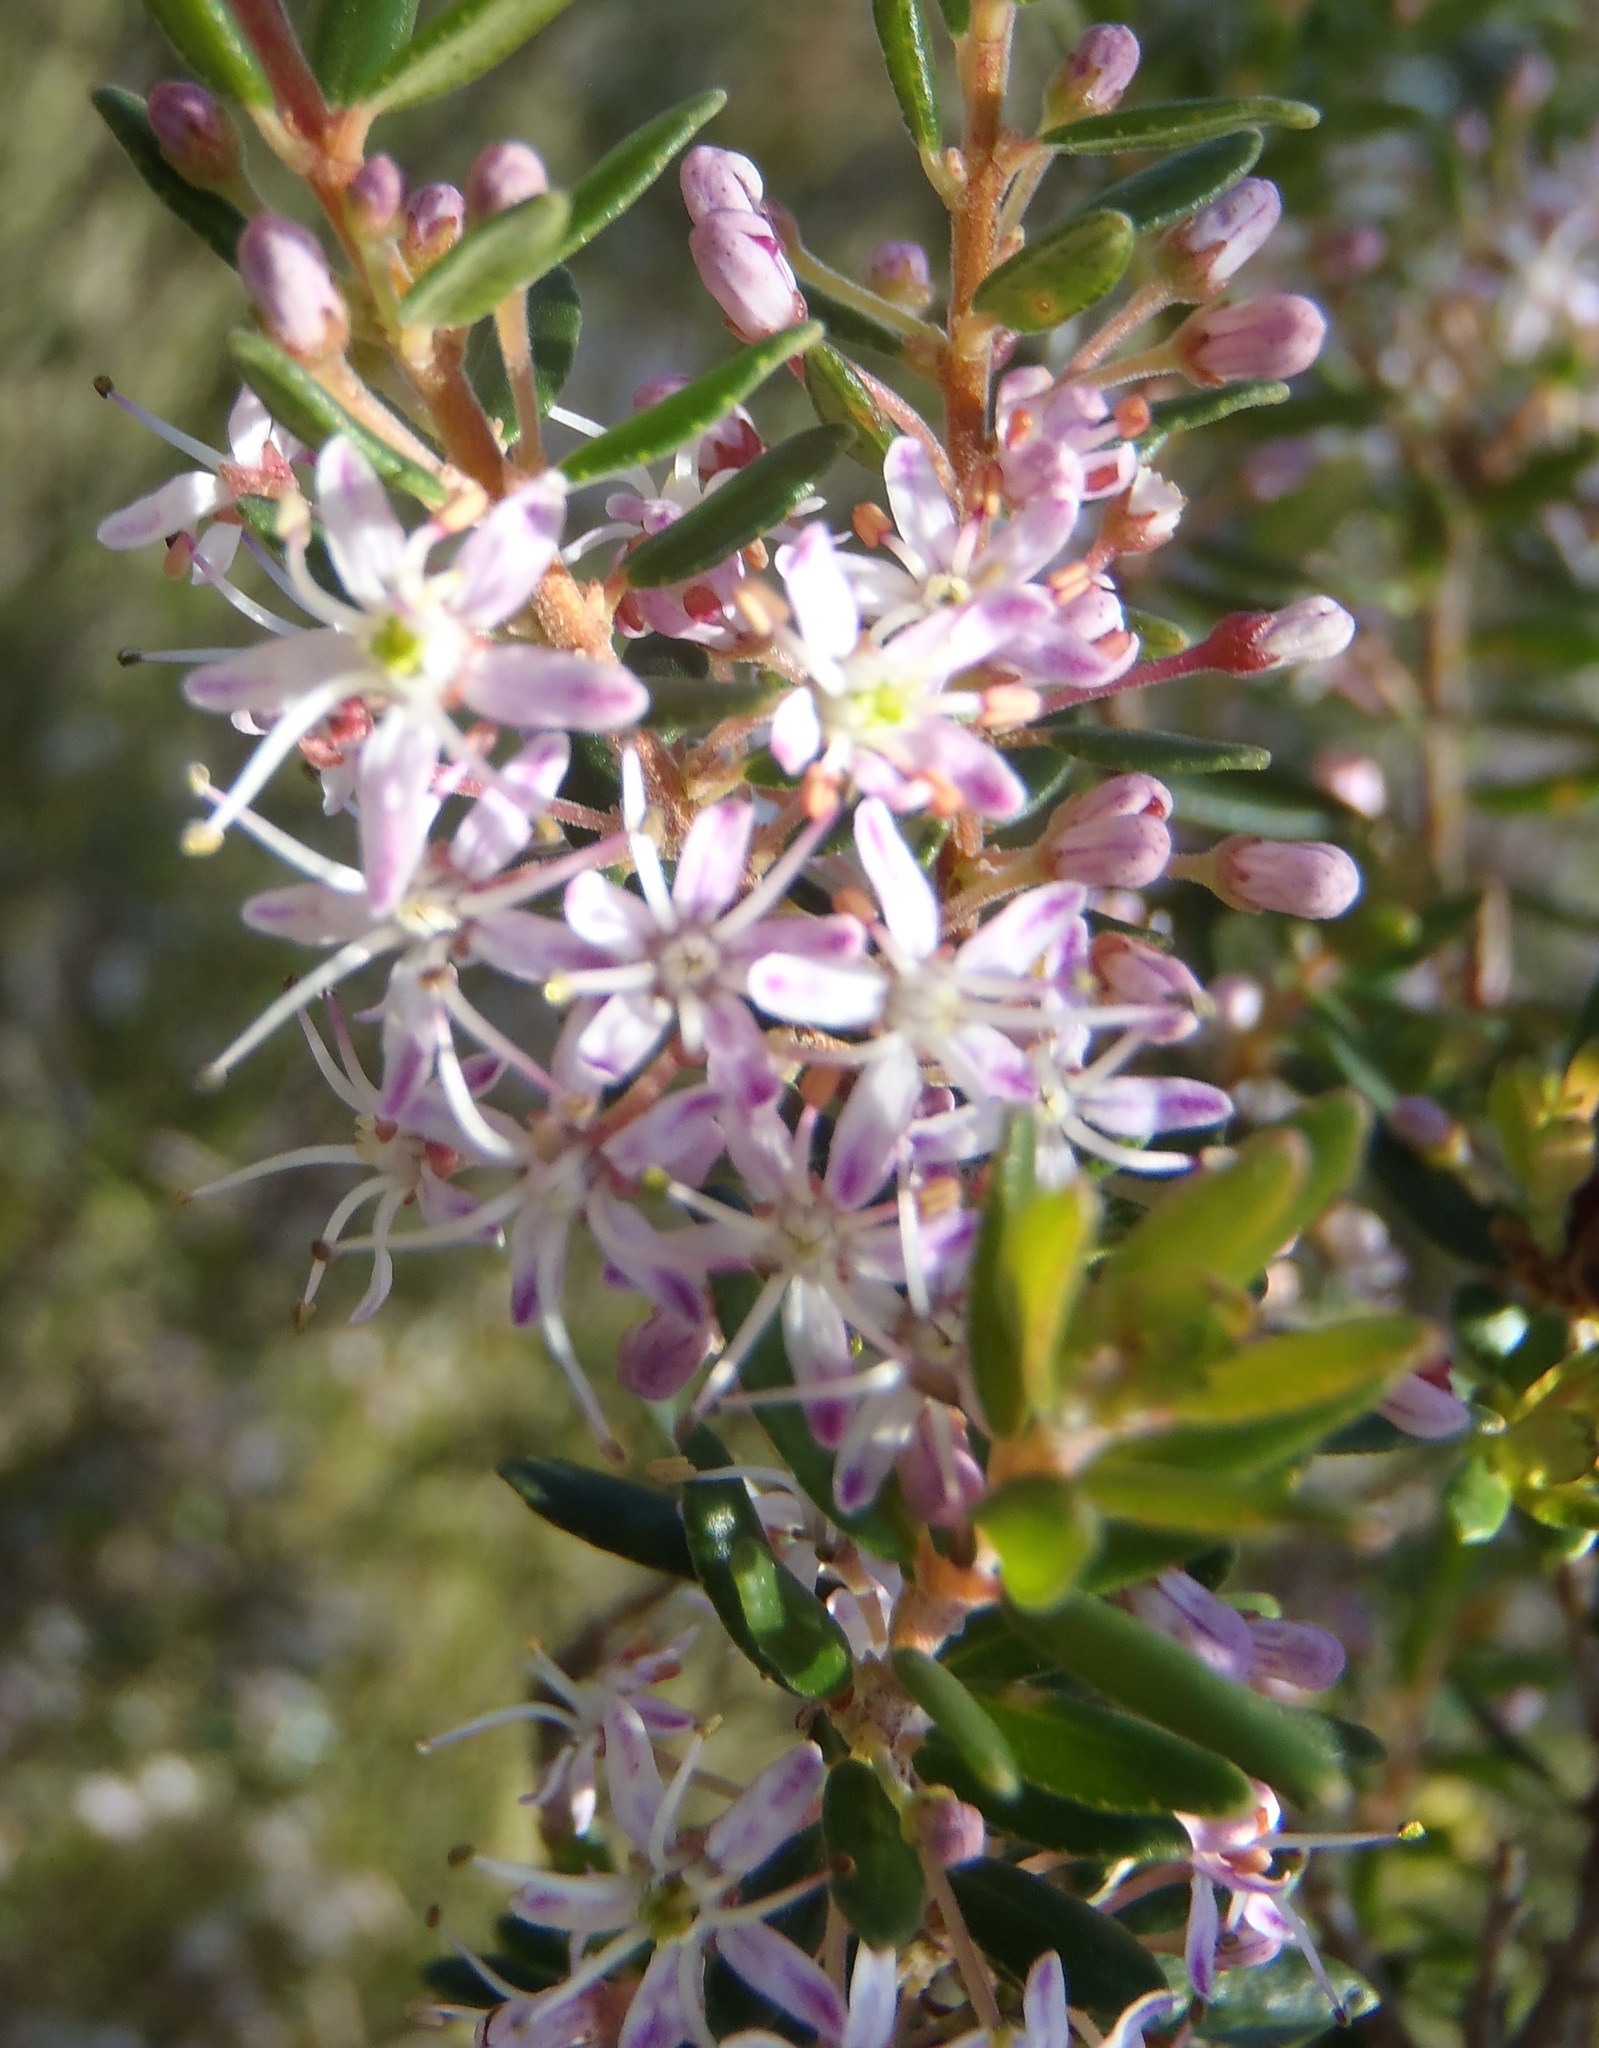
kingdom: Plantae
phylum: Tracheophyta
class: Magnoliopsida
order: Sapindales
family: Rutaceae
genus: Agathosma
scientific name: Agathosma ovata
